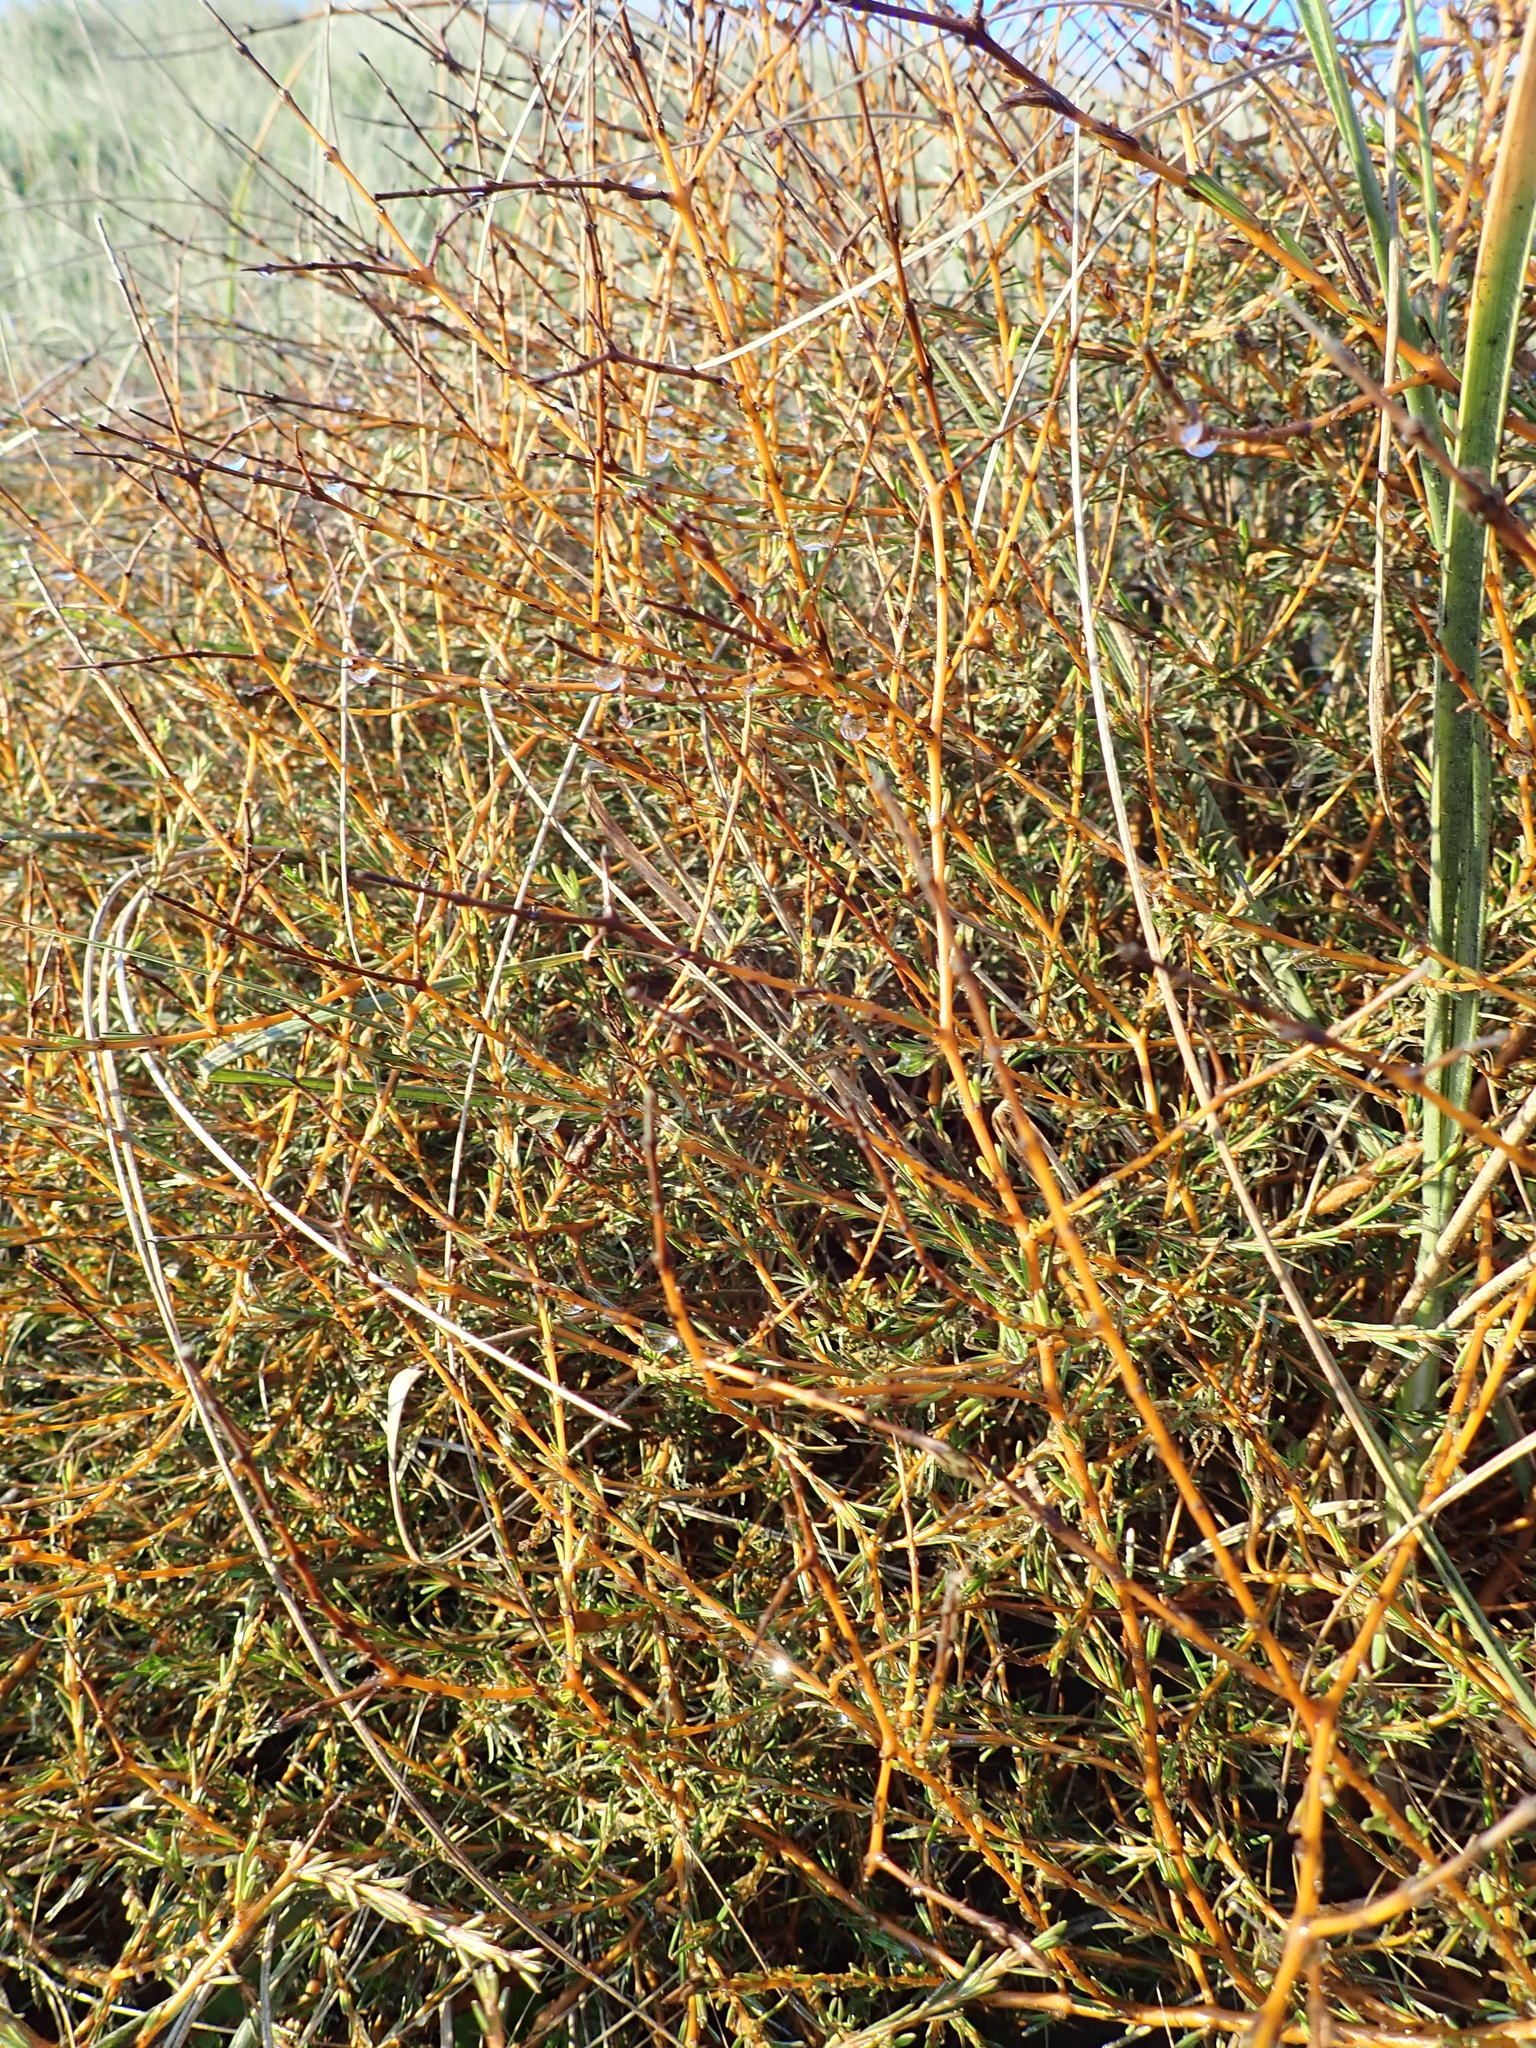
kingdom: Plantae
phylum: Tracheophyta
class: Magnoliopsida
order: Gentianales
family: Rubiaceae
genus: Coprosma
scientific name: Coprosma acerosa
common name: Sand coprosma
